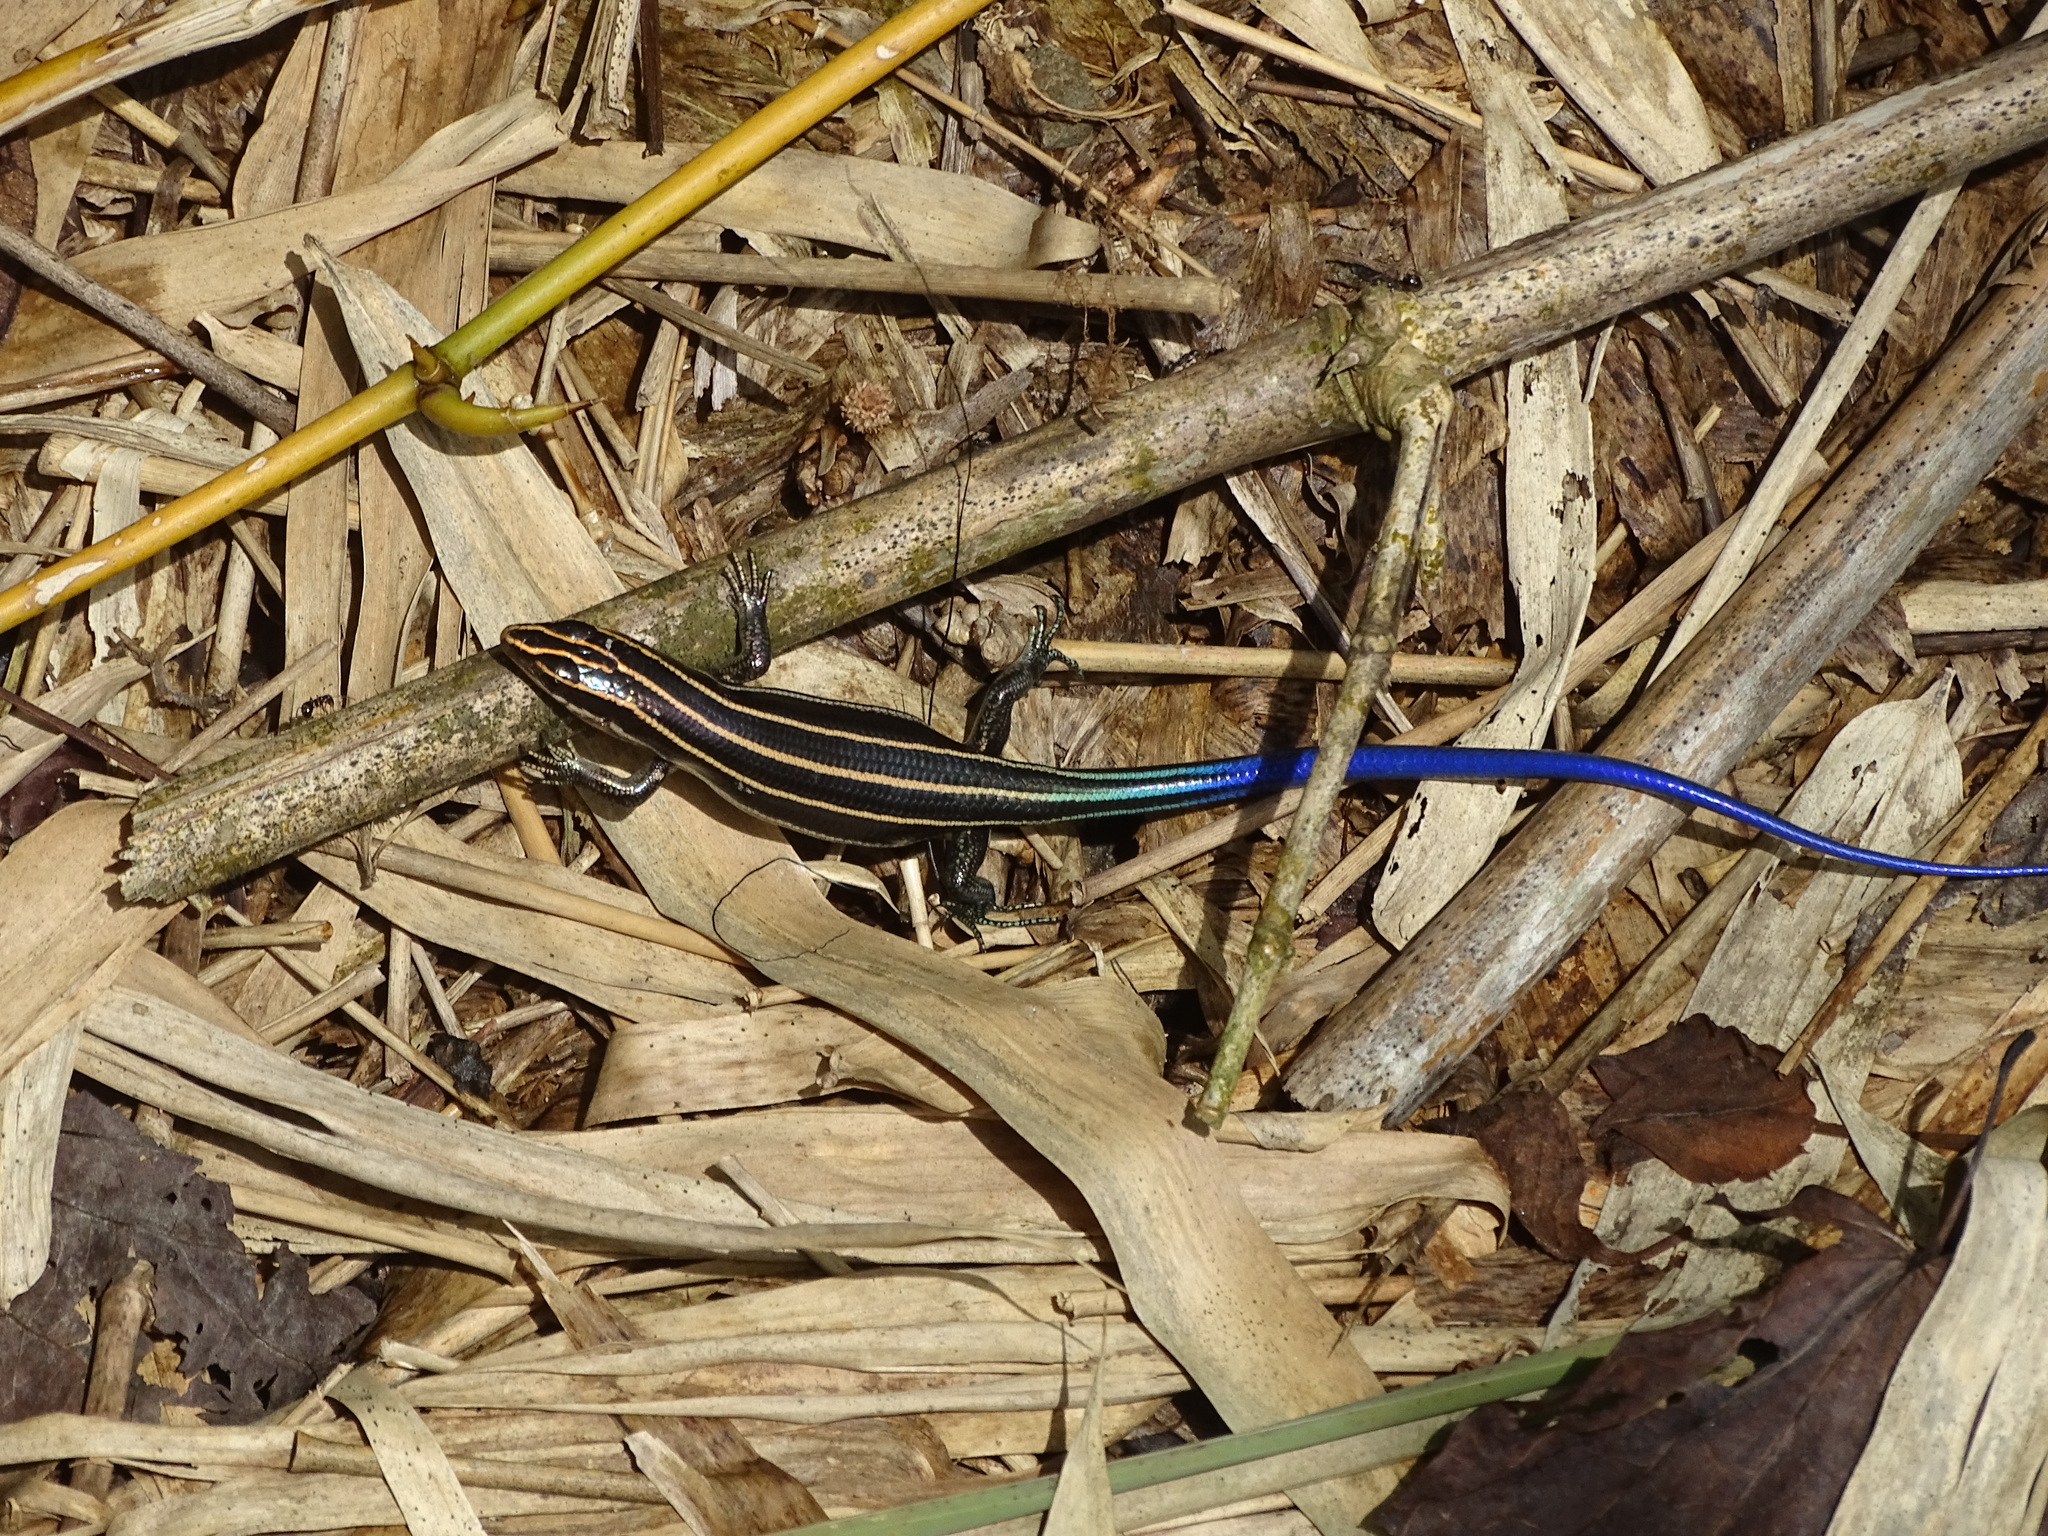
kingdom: Animalia
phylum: Chordata
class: Squamata
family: Scincidae
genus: Plestiodon
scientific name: Plestiodon elegans
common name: Shanghai elegant skink
